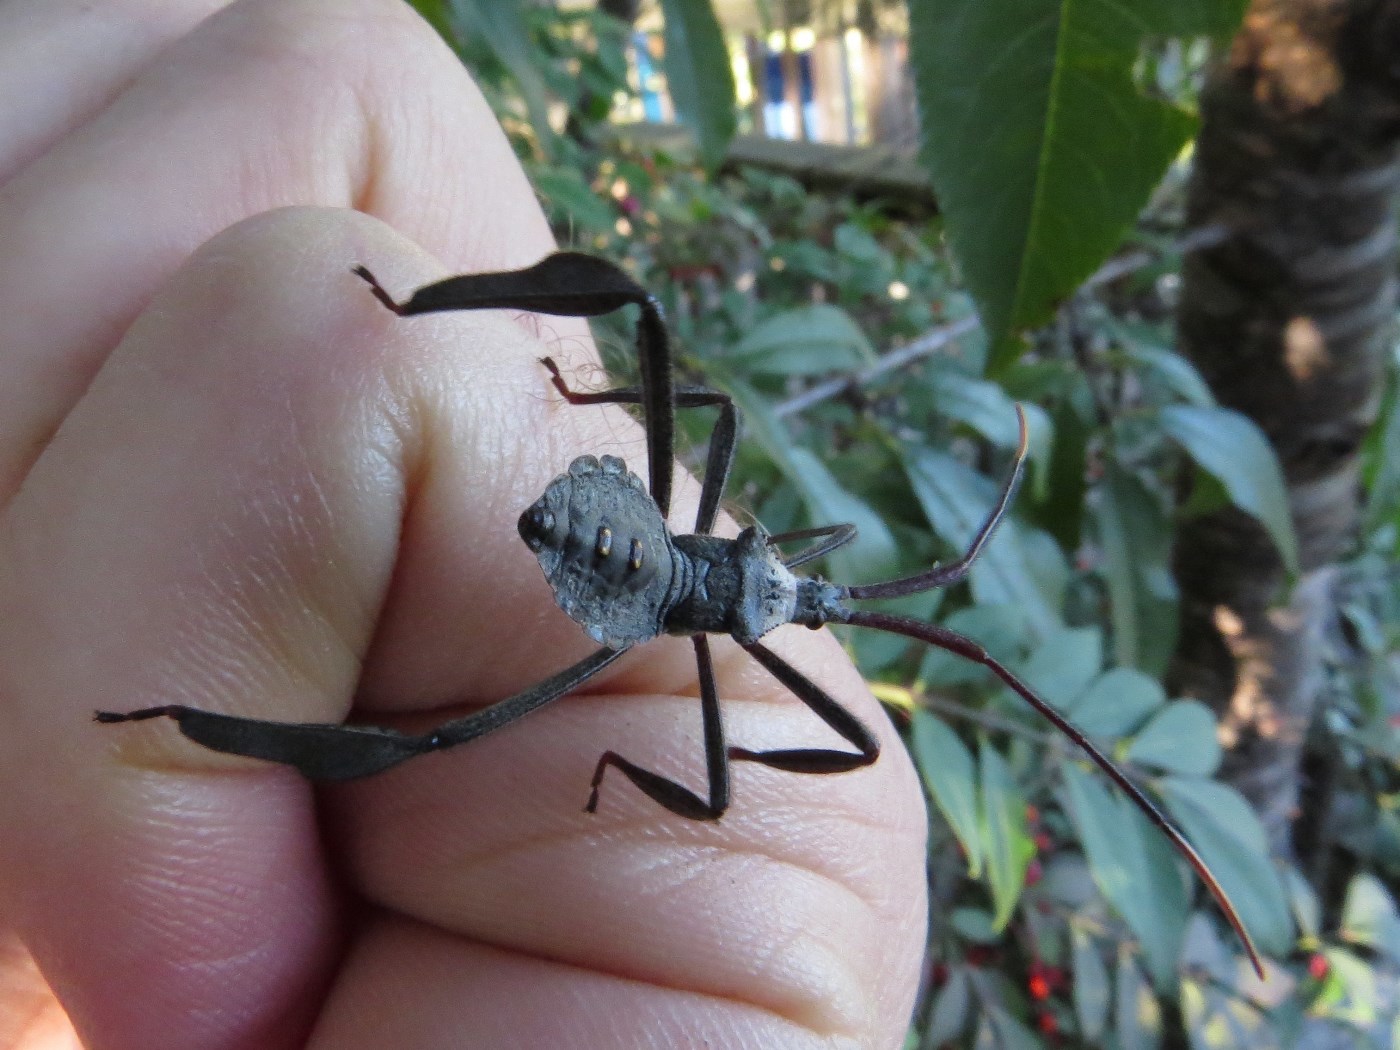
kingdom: Animalia
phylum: Arthropoda
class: Insecta
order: Hemiptera
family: Coreidae
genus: Acanthocephala
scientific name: Acanthocephala declivis
